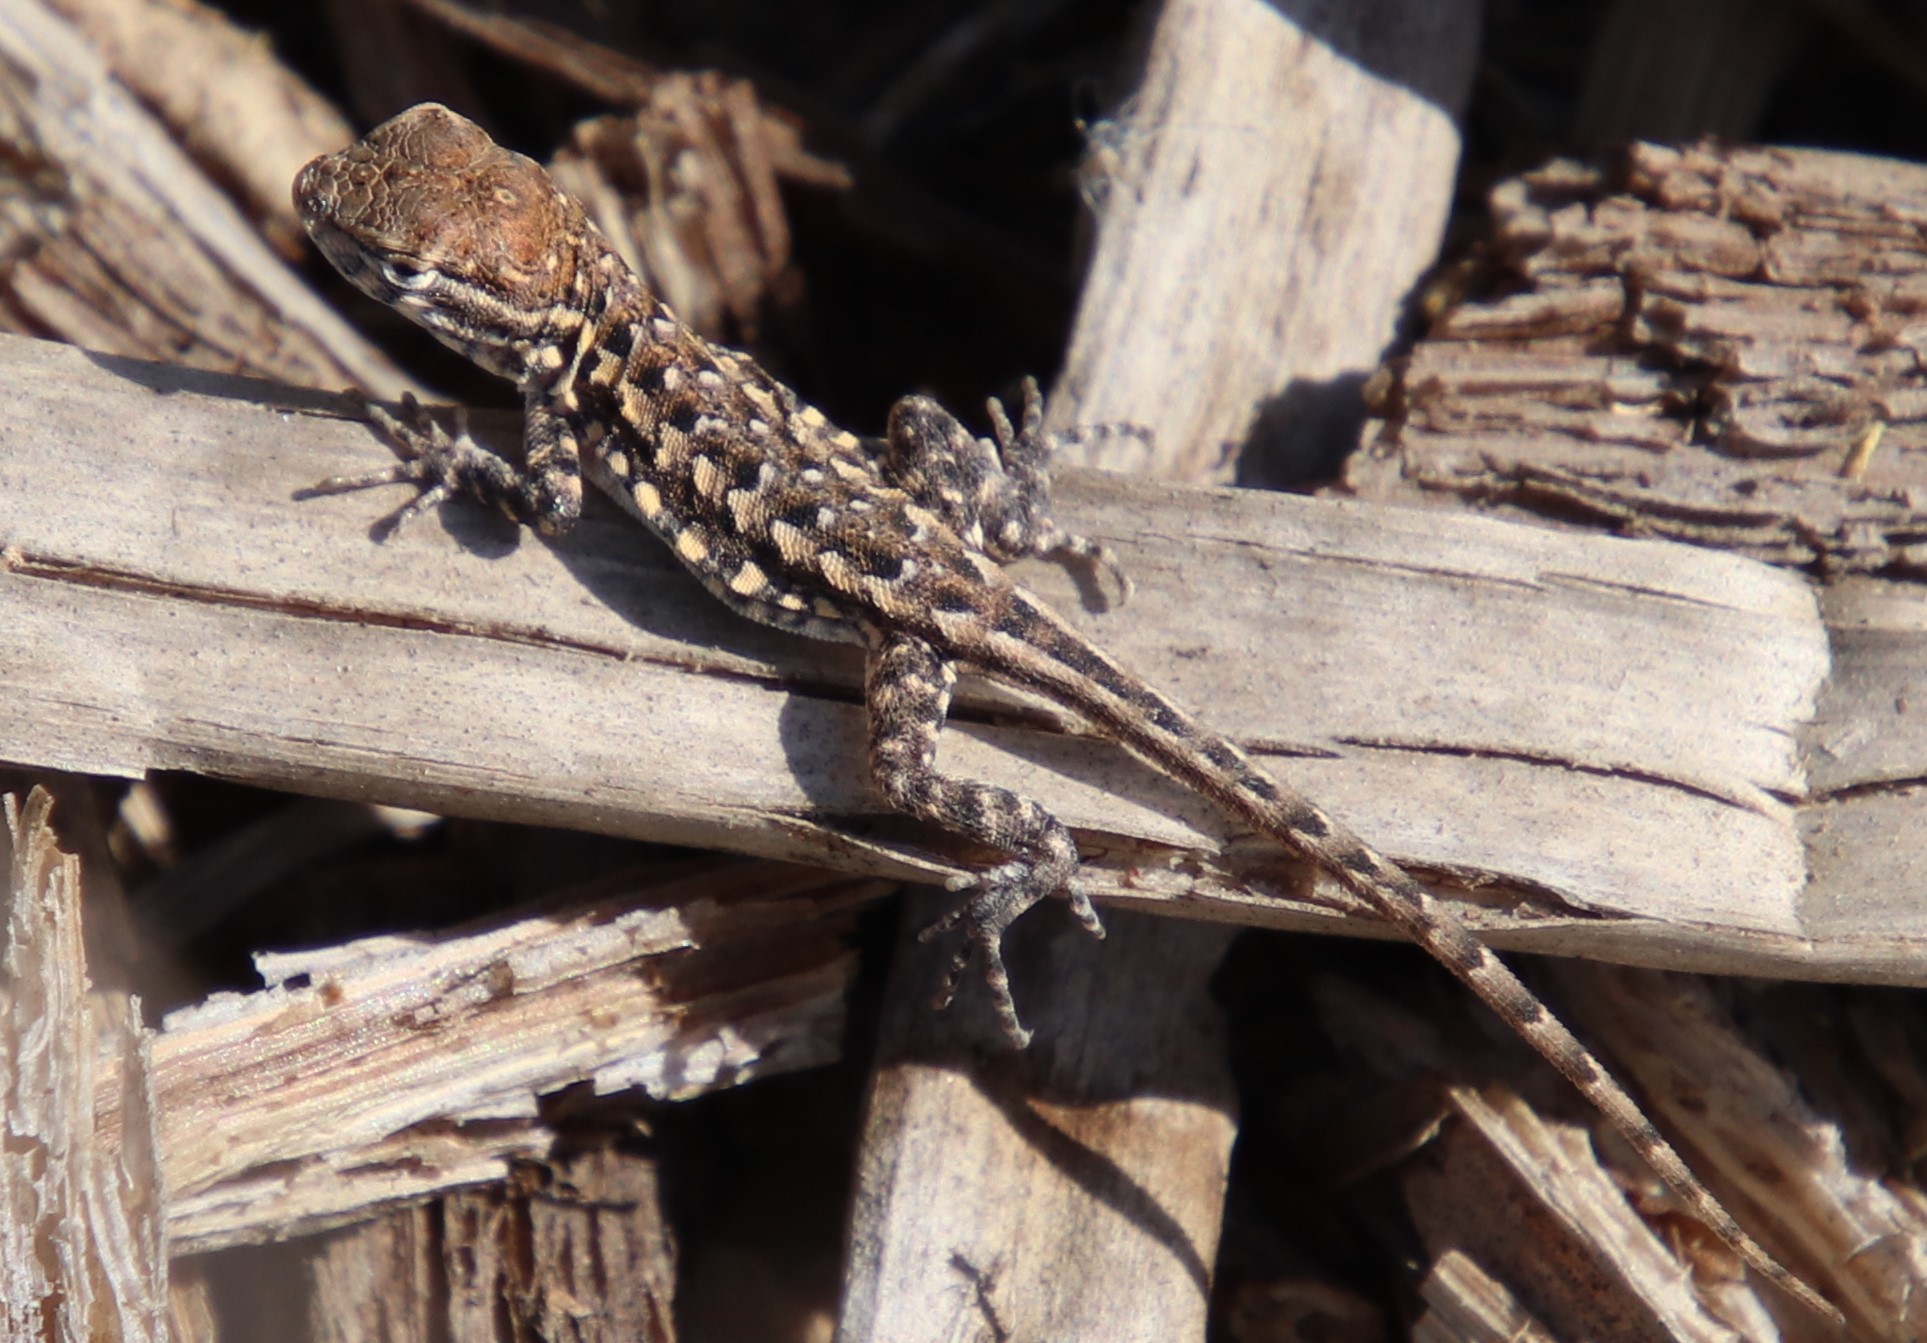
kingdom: Animalia
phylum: Chordata
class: Squamata
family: Phrynosomatidae
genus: Uta
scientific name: Uta stansburiana
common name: Side-blotched lizard
